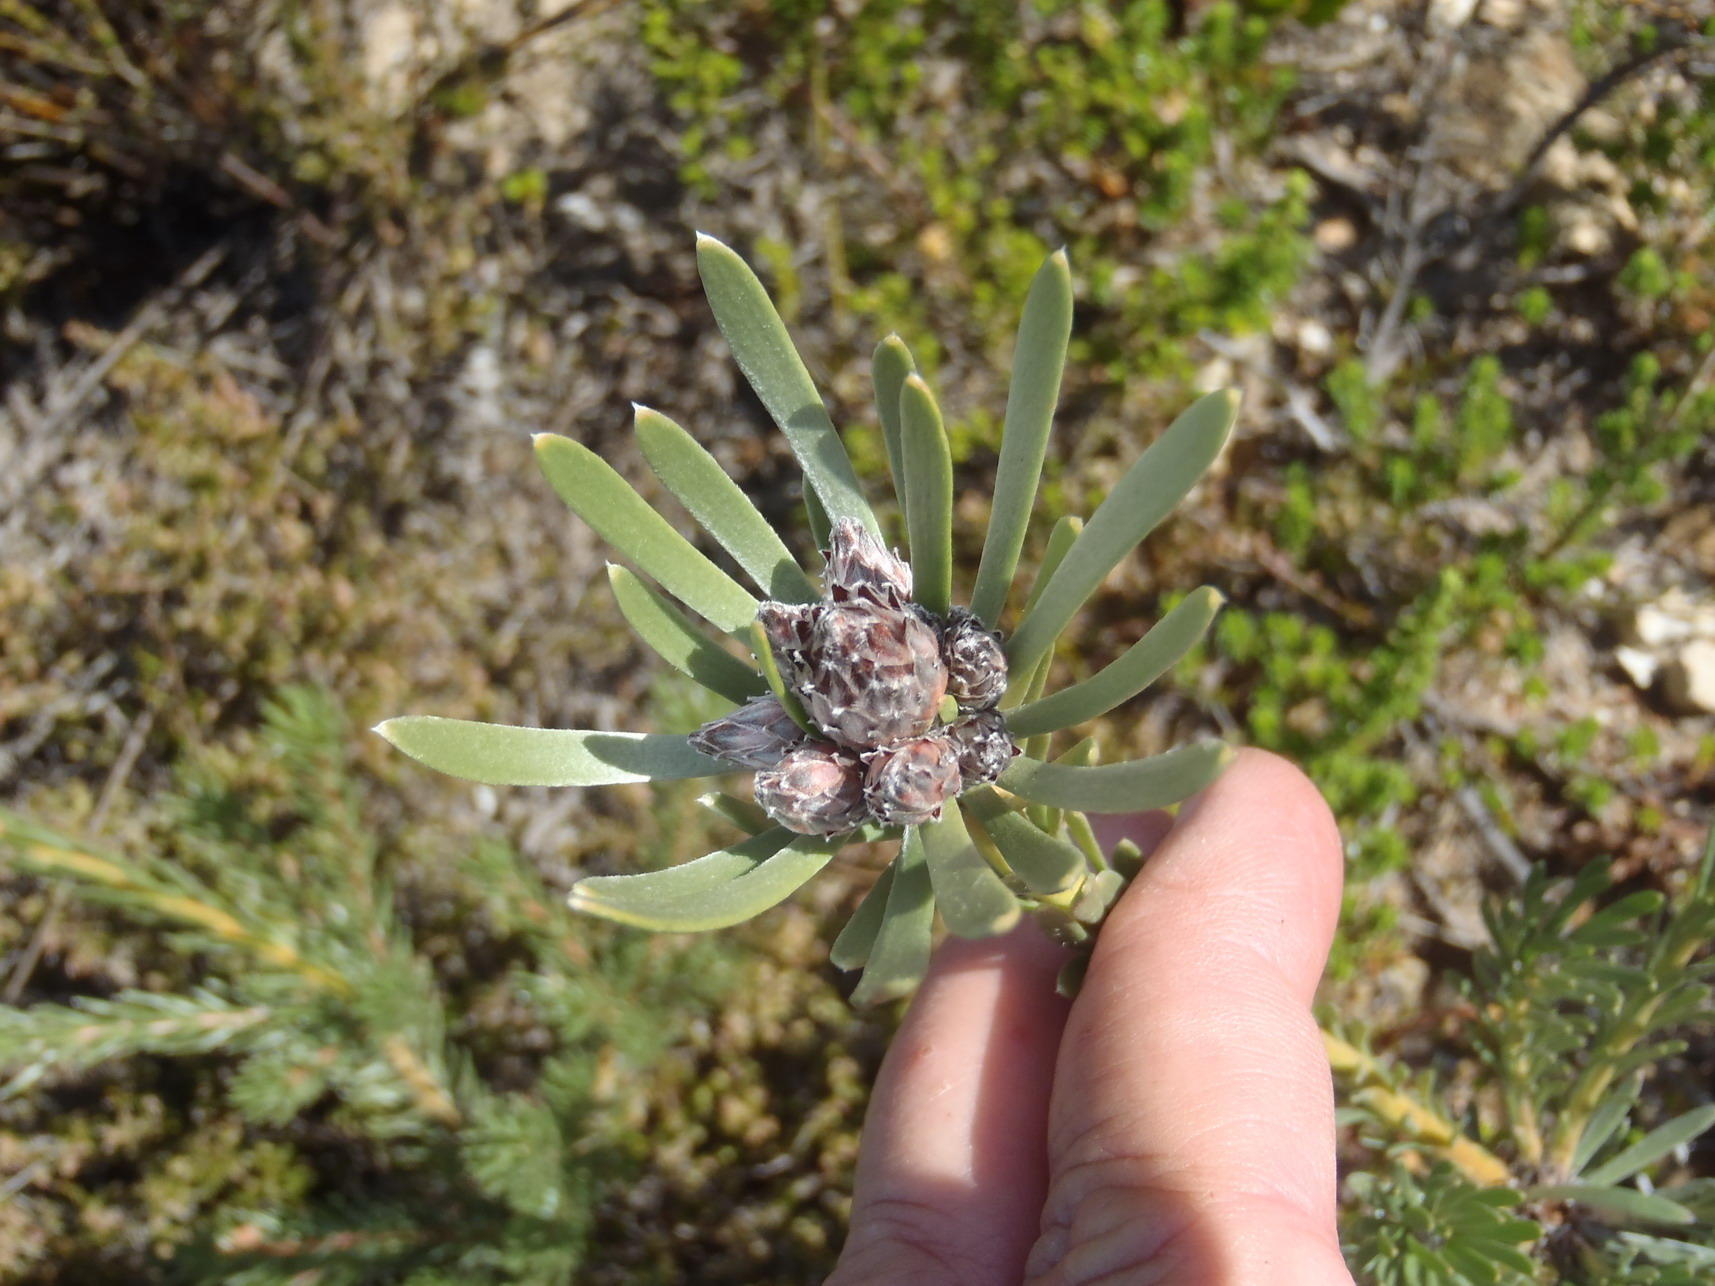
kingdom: Plantae
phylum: Tracheophyta
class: Magnoliopsida
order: Proteales
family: Proteaceae
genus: Leucadendron
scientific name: Leucadendron singulare
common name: Kammanassie conebush
